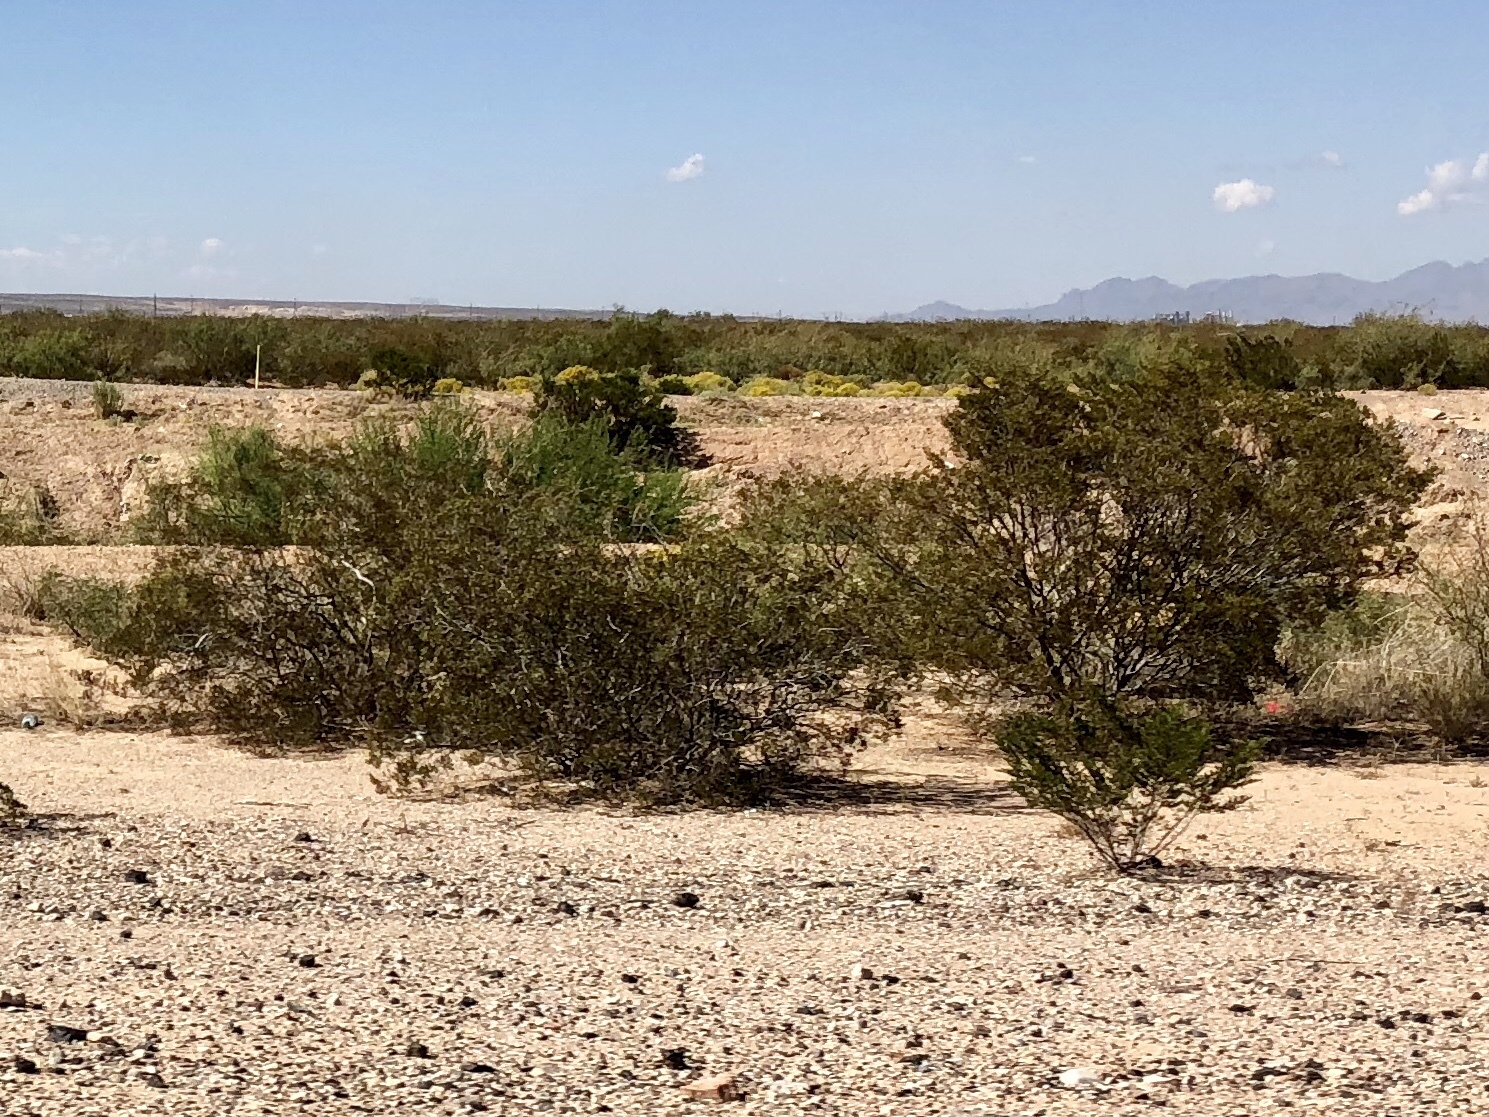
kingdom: Plantae
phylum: Tracheophyta
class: Magnoliopsida
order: Zygophyllales
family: Zygophyllaceae
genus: Larrea
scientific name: Larrea tridentata
